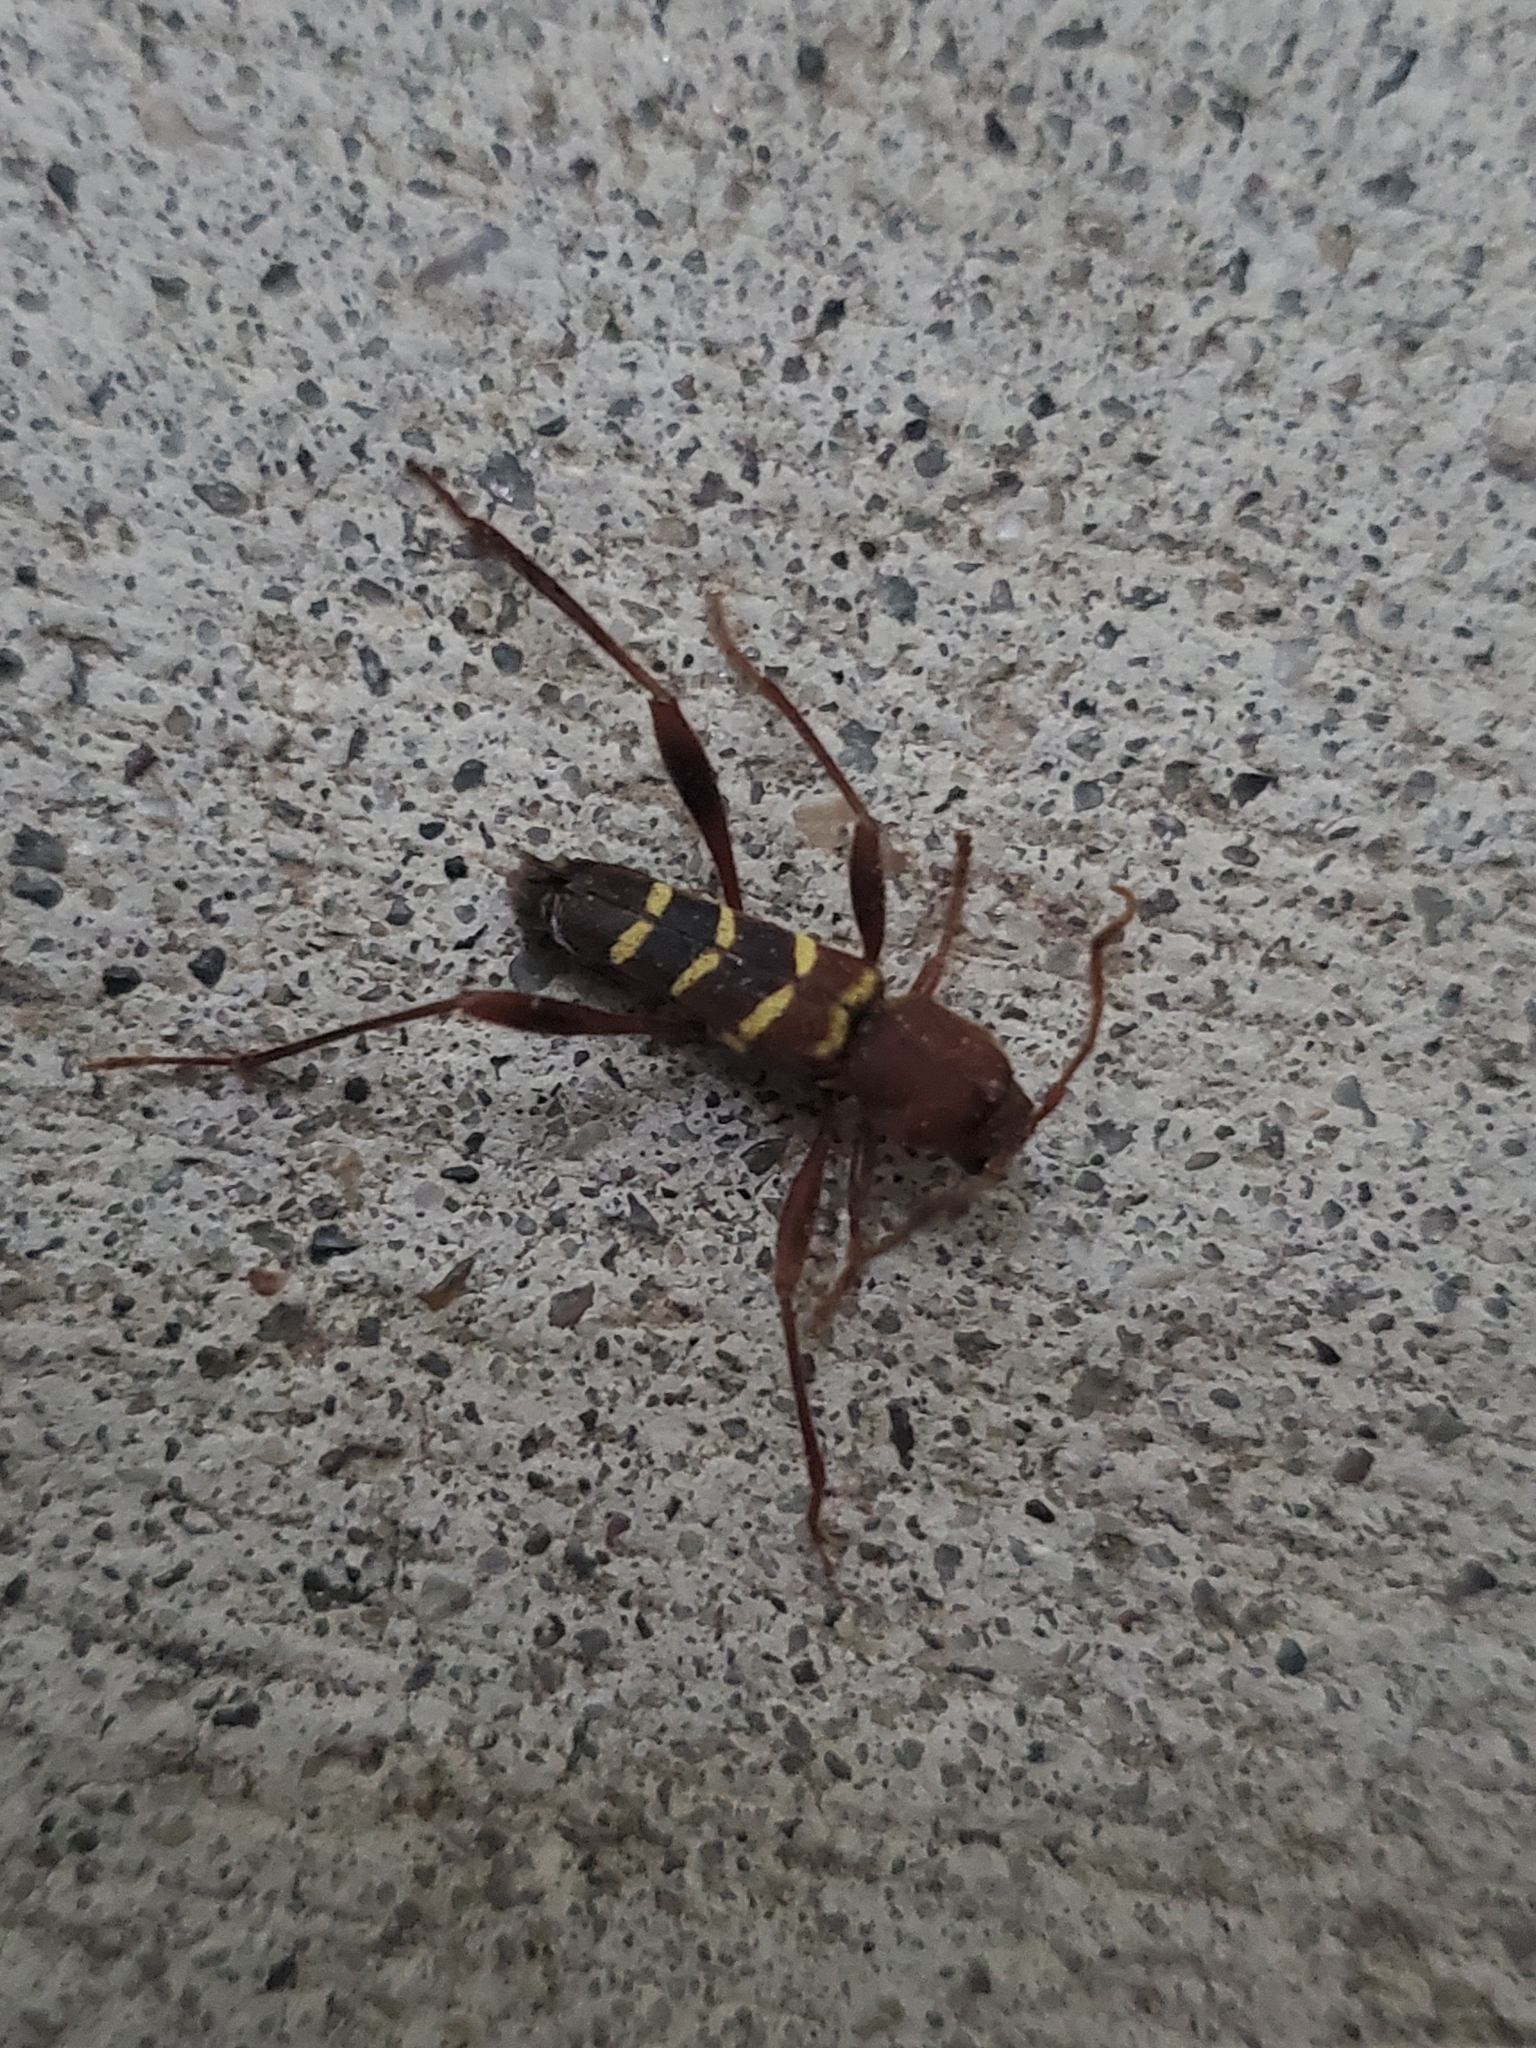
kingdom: Animalia
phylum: Arthropoda
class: Insecta
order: Coleoptera
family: Cerambycidae
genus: Neoclytus
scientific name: Neoclytus acuminatus
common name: Read-headed ash borer
